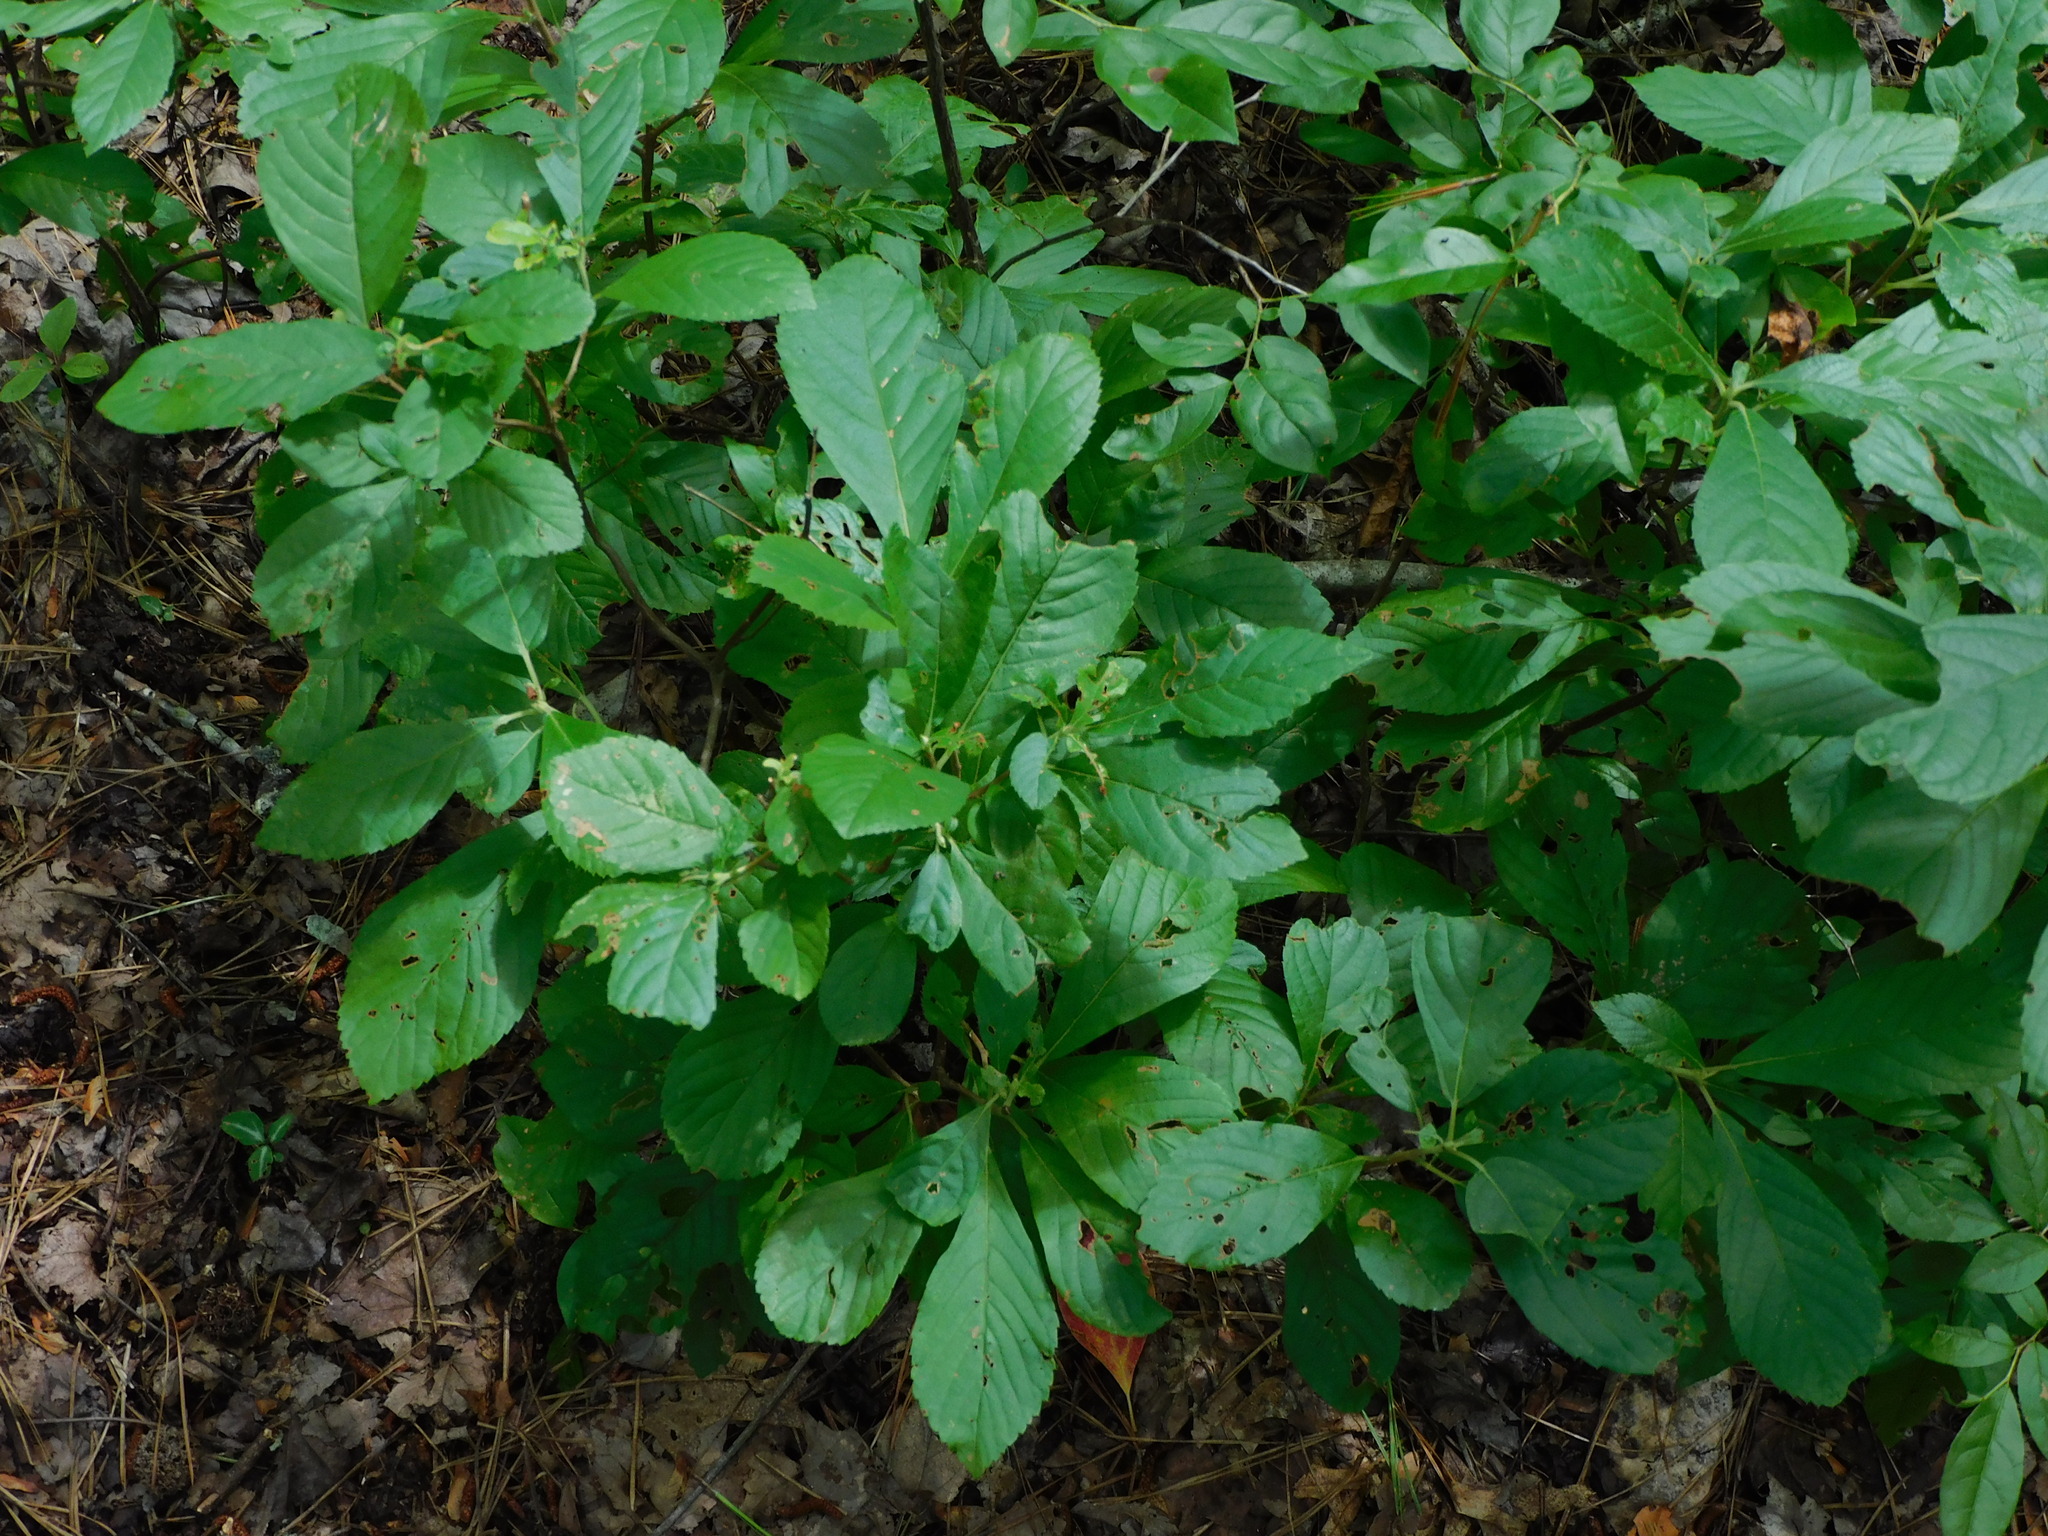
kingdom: Plantae
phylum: Tracheophyta
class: Magnoliopsida
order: Ericales
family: Clethraceae
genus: Clethra
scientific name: Clethra alnifolia
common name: Sweet pepperbush
